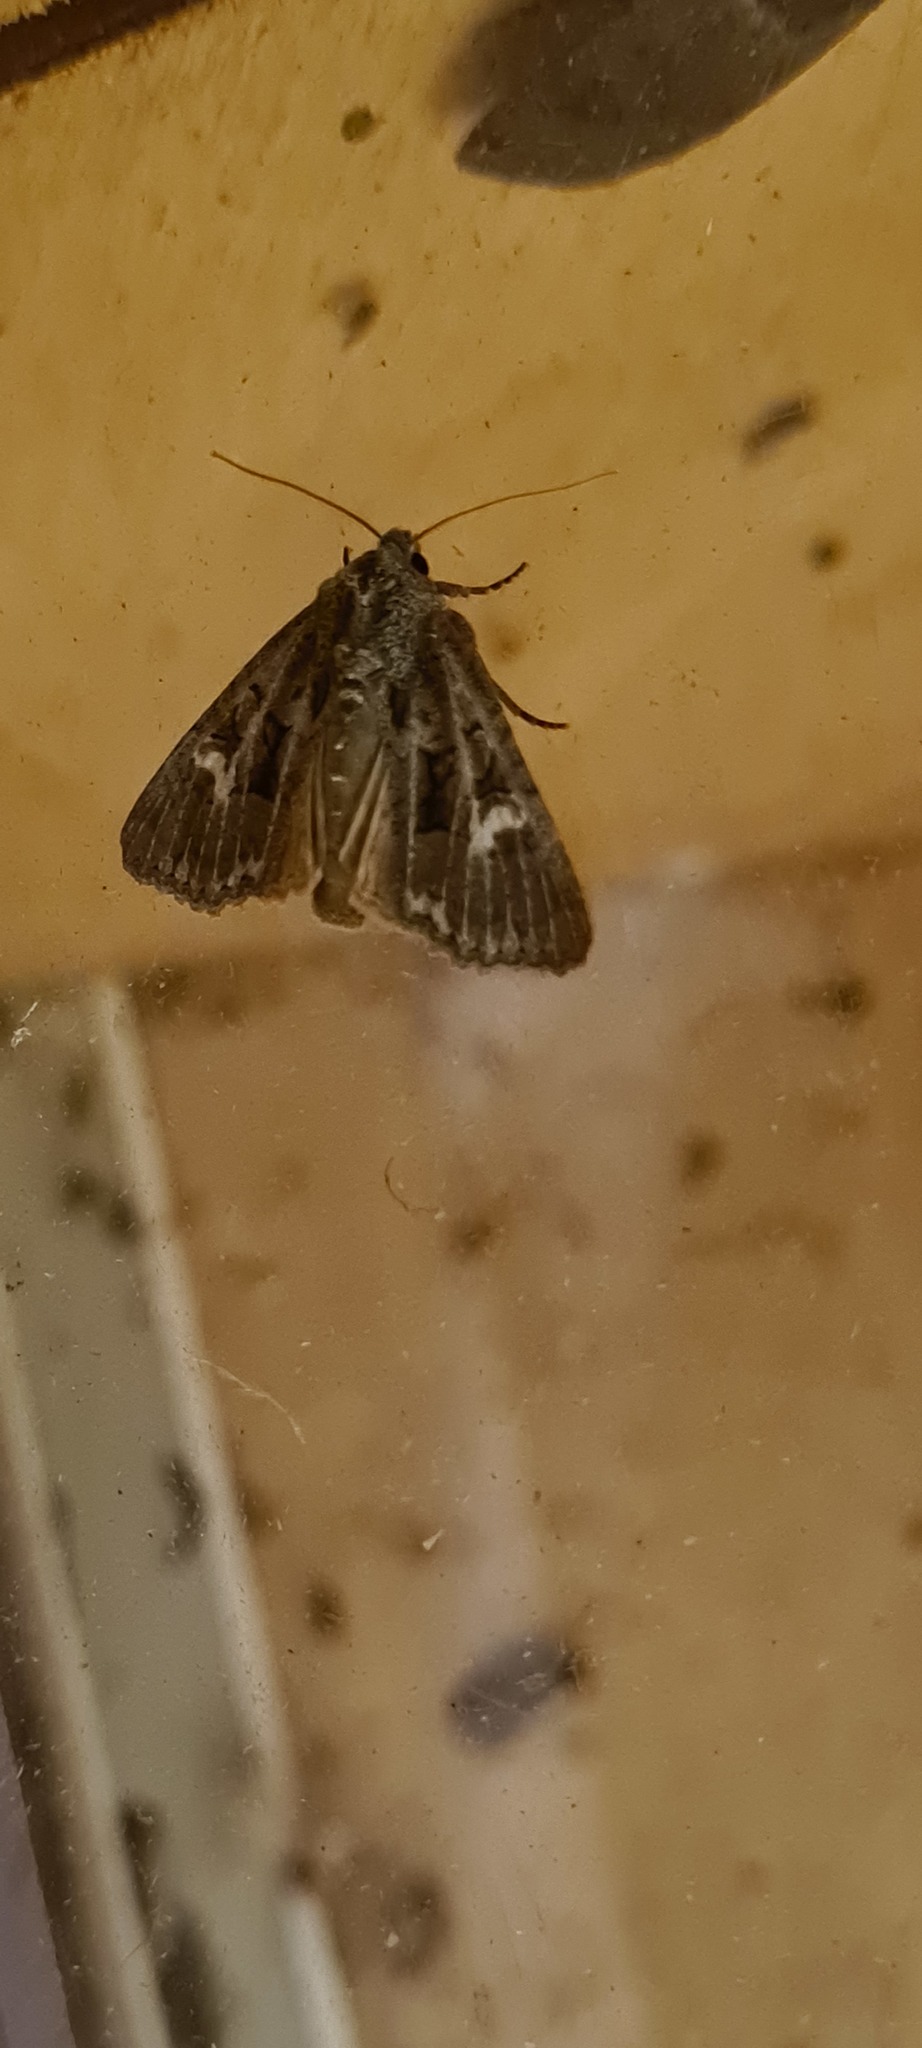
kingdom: Animalia
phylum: Arthropoda
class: Insecta
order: Lepidoptera
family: Noctuidae
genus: Cerapteryx
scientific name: Cerapteryx graminis
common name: Antler moth
